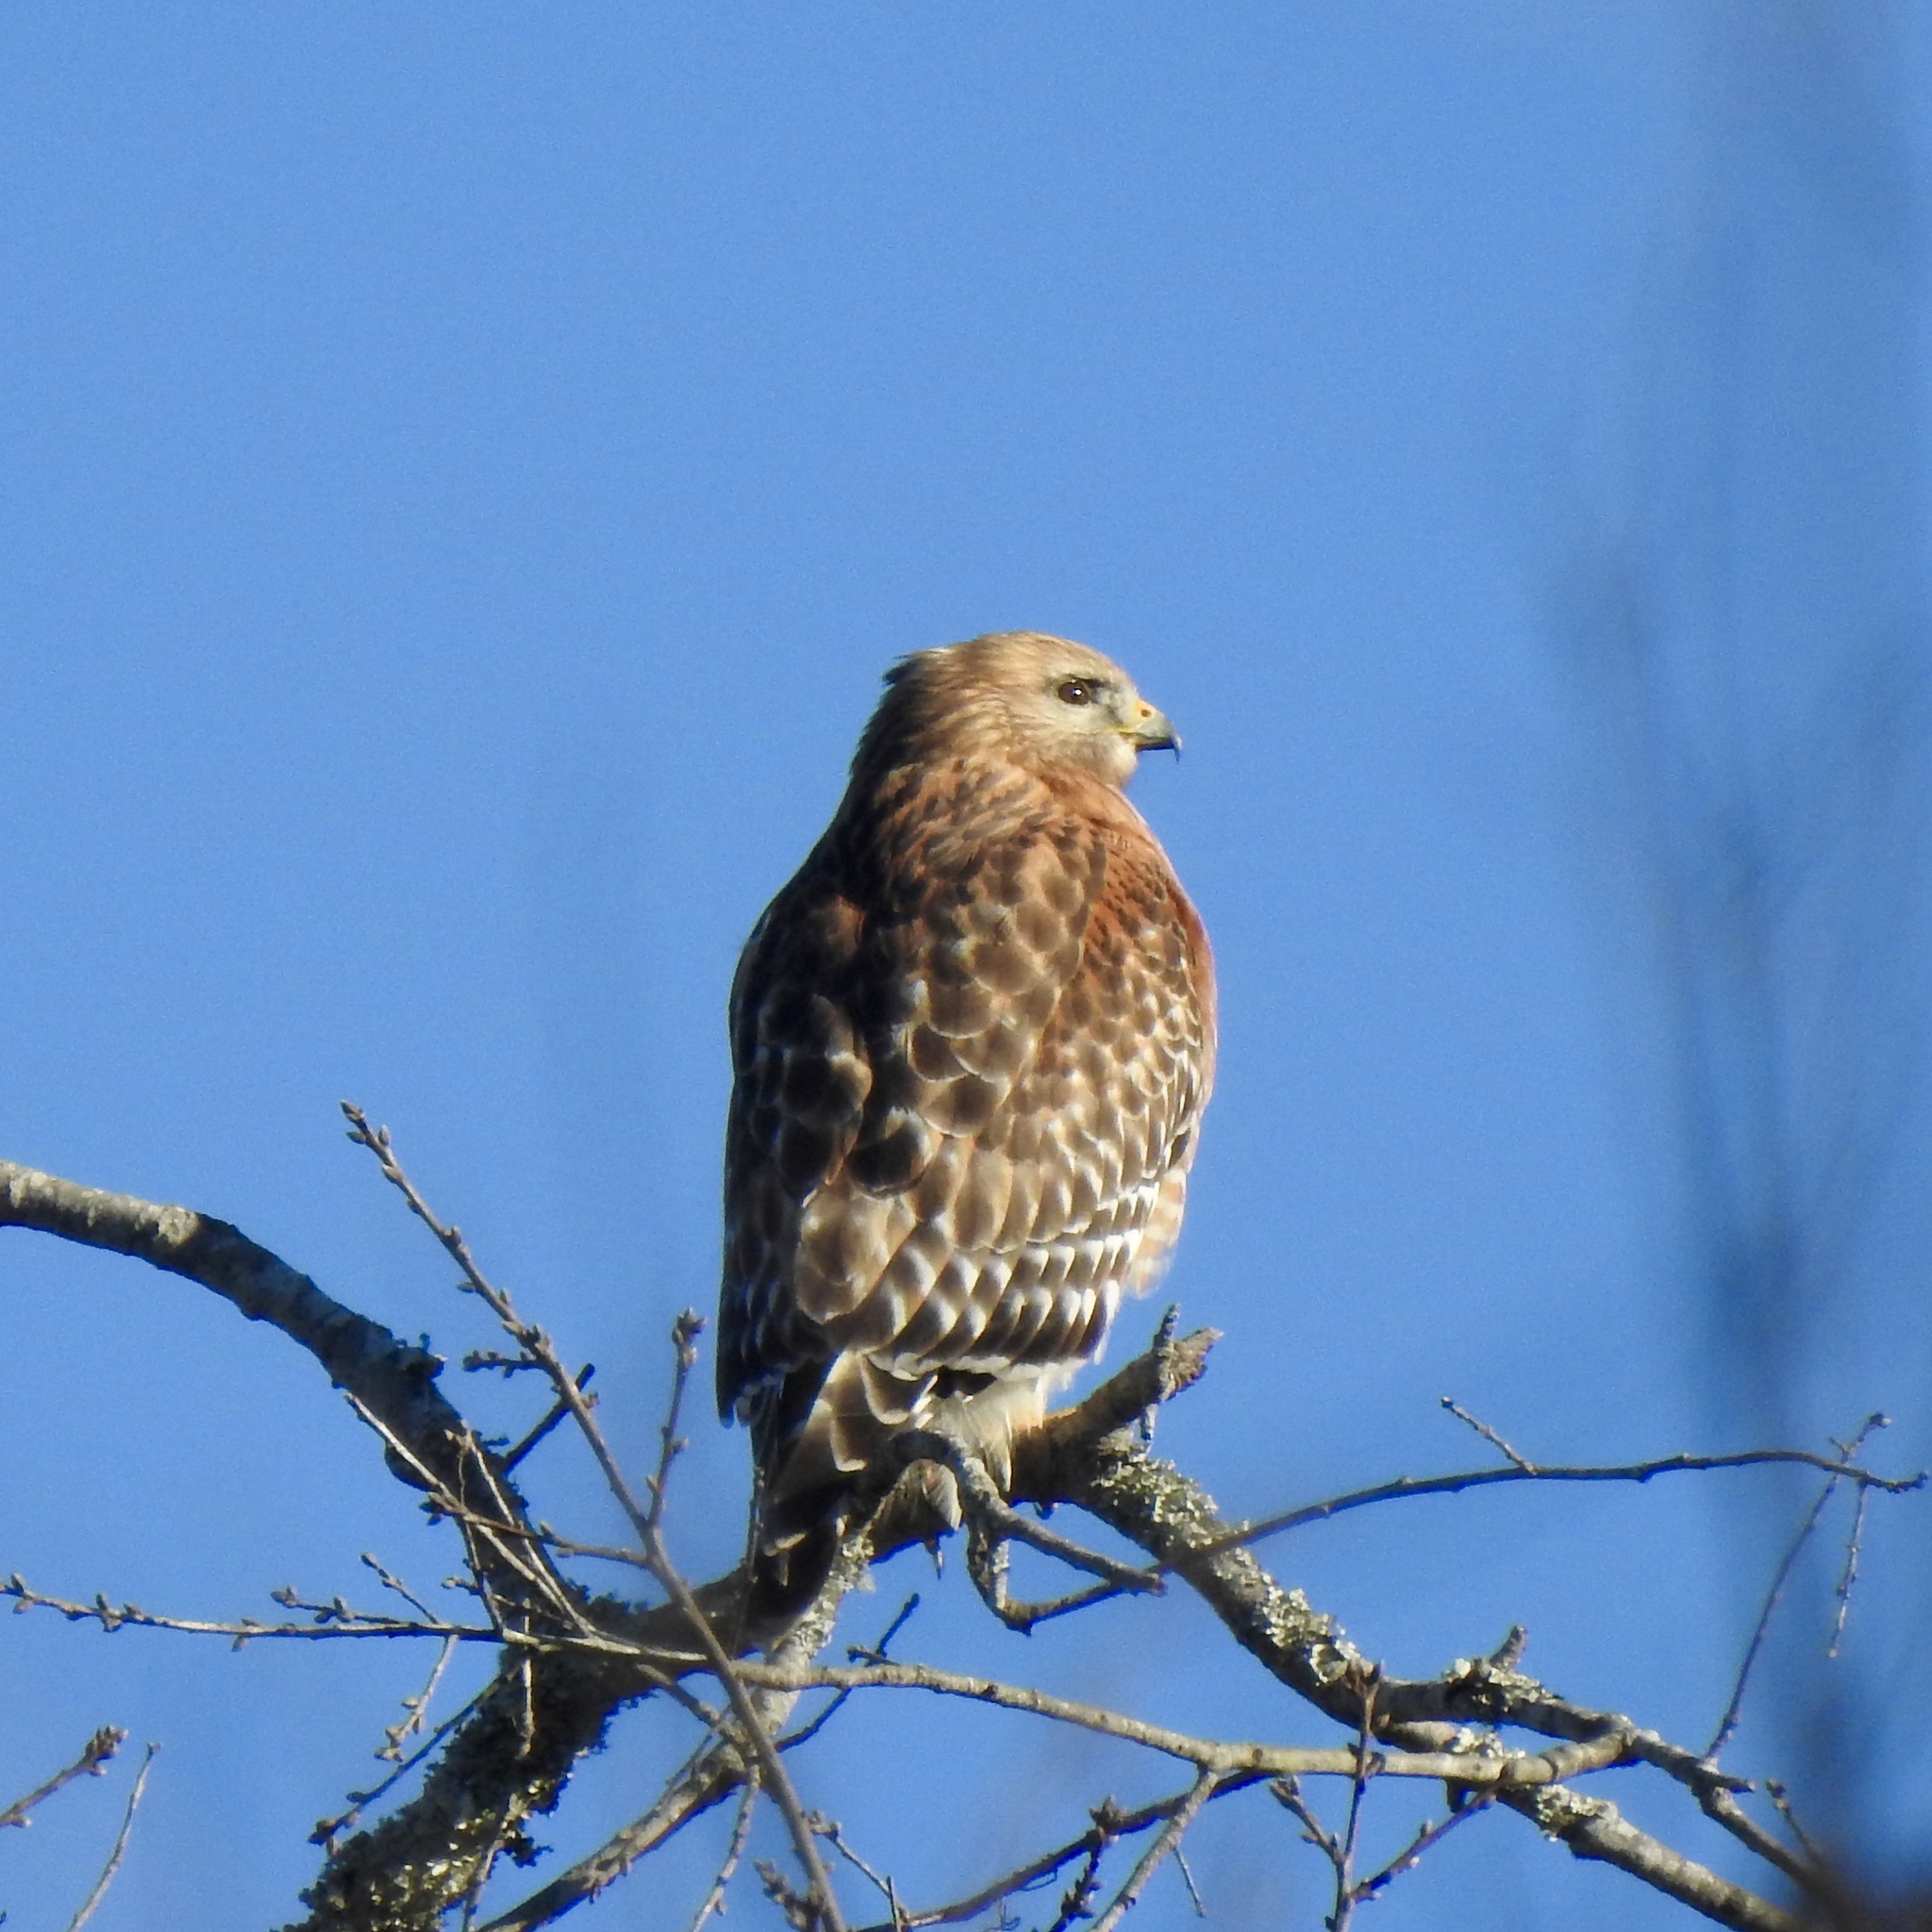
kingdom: Animalia
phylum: Chordata
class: Aves
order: Accipitriformes
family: Accipitridae
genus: Buteo
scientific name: Buteo lineatus
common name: Red-shouldered hawk
